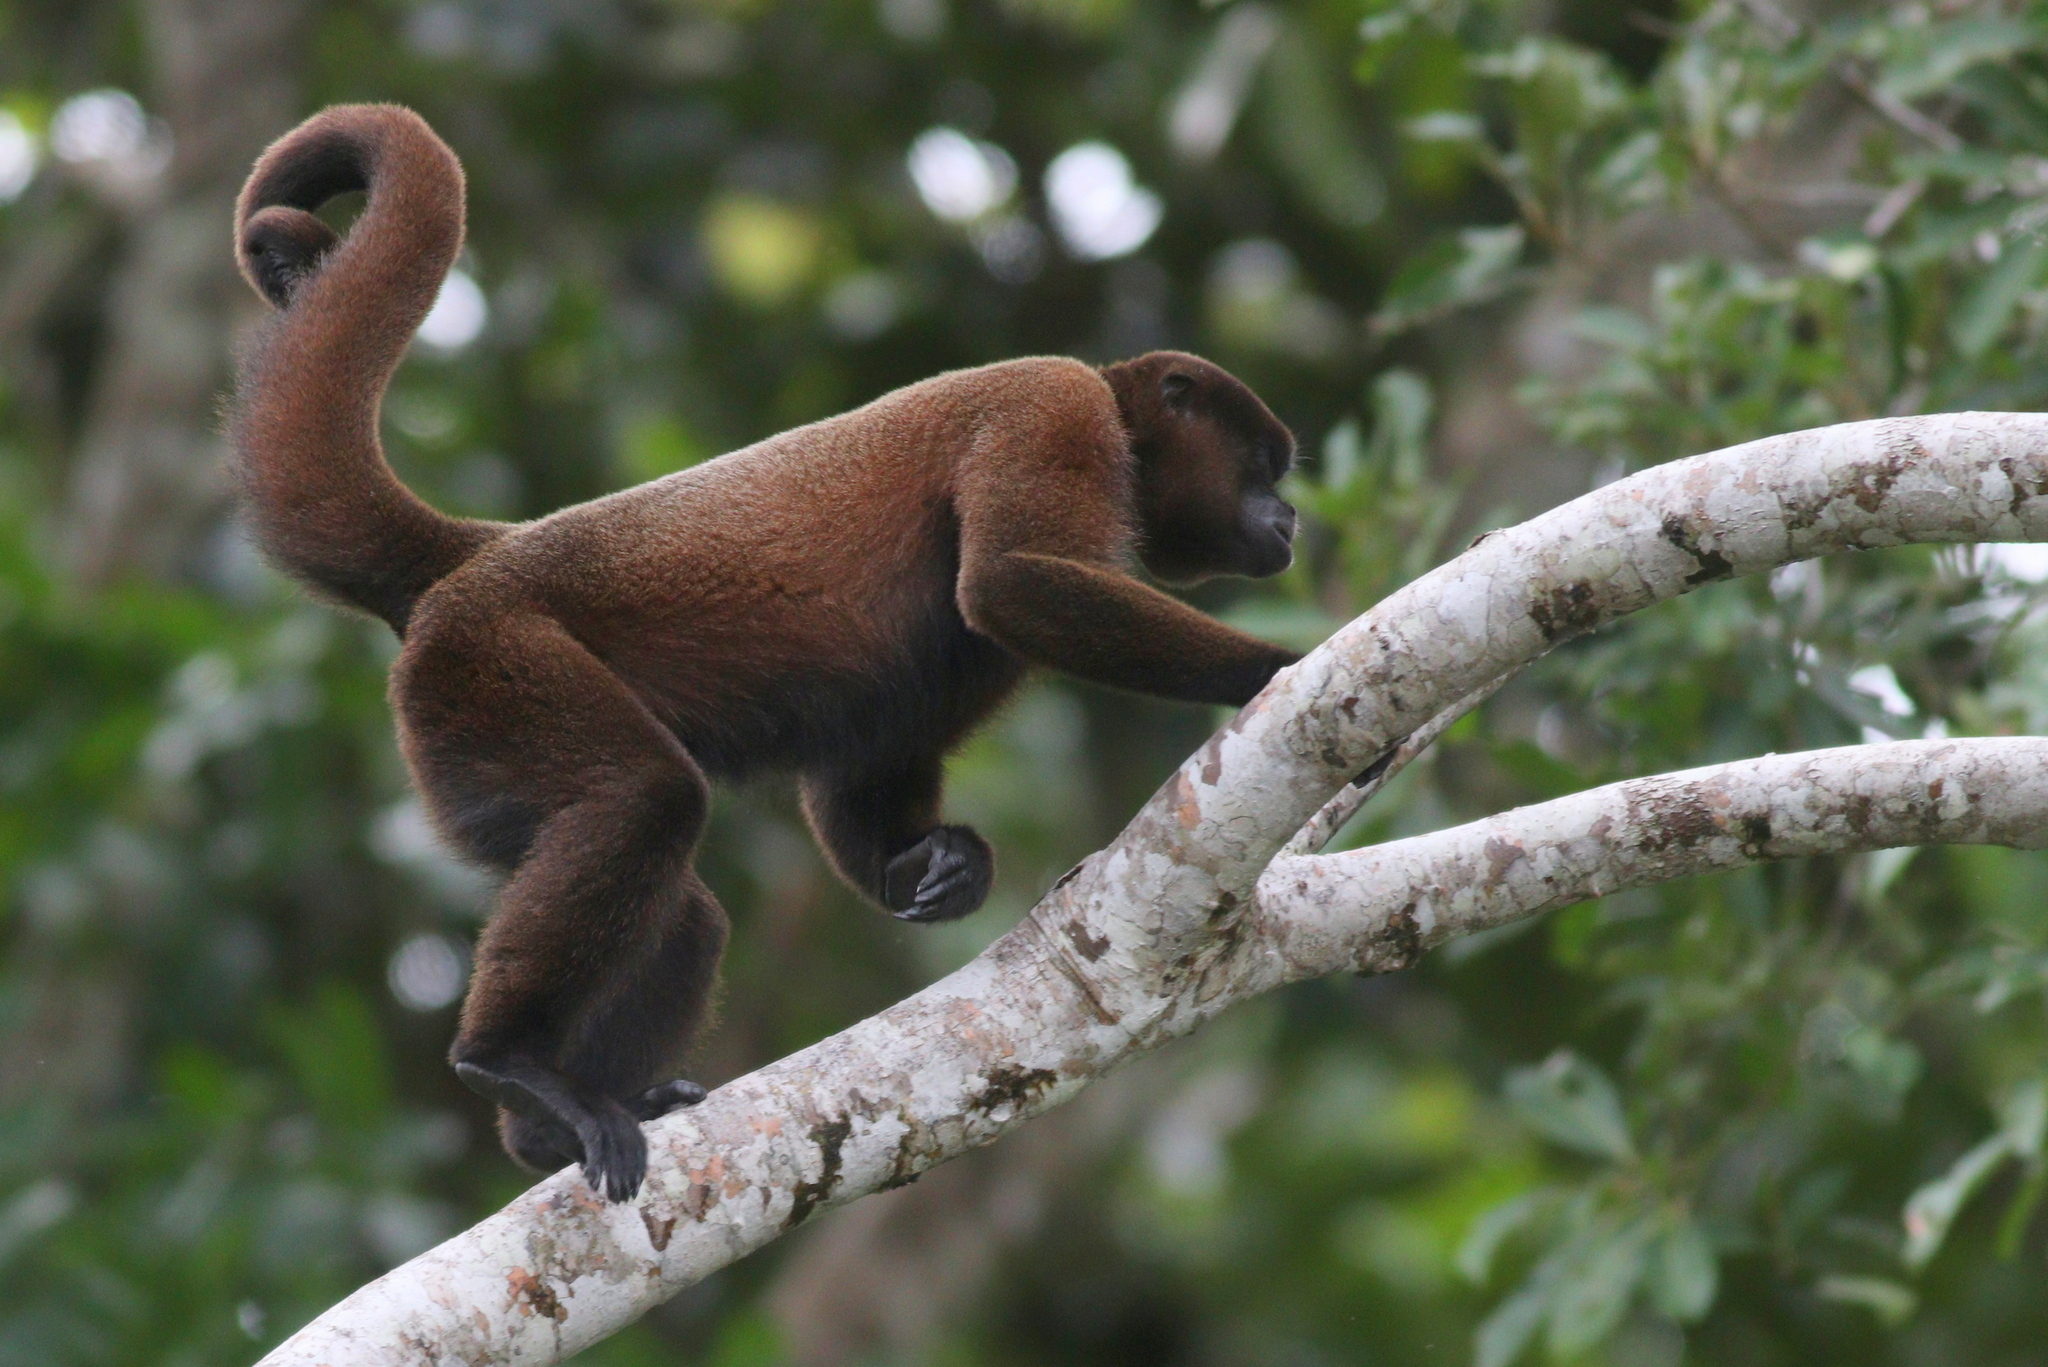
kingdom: Animalia
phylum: Chordata
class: Mammalia
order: Primates
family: Atelidae
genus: Lagothrix
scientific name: Lagothrix lagothricha
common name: Brown woolly monkey
